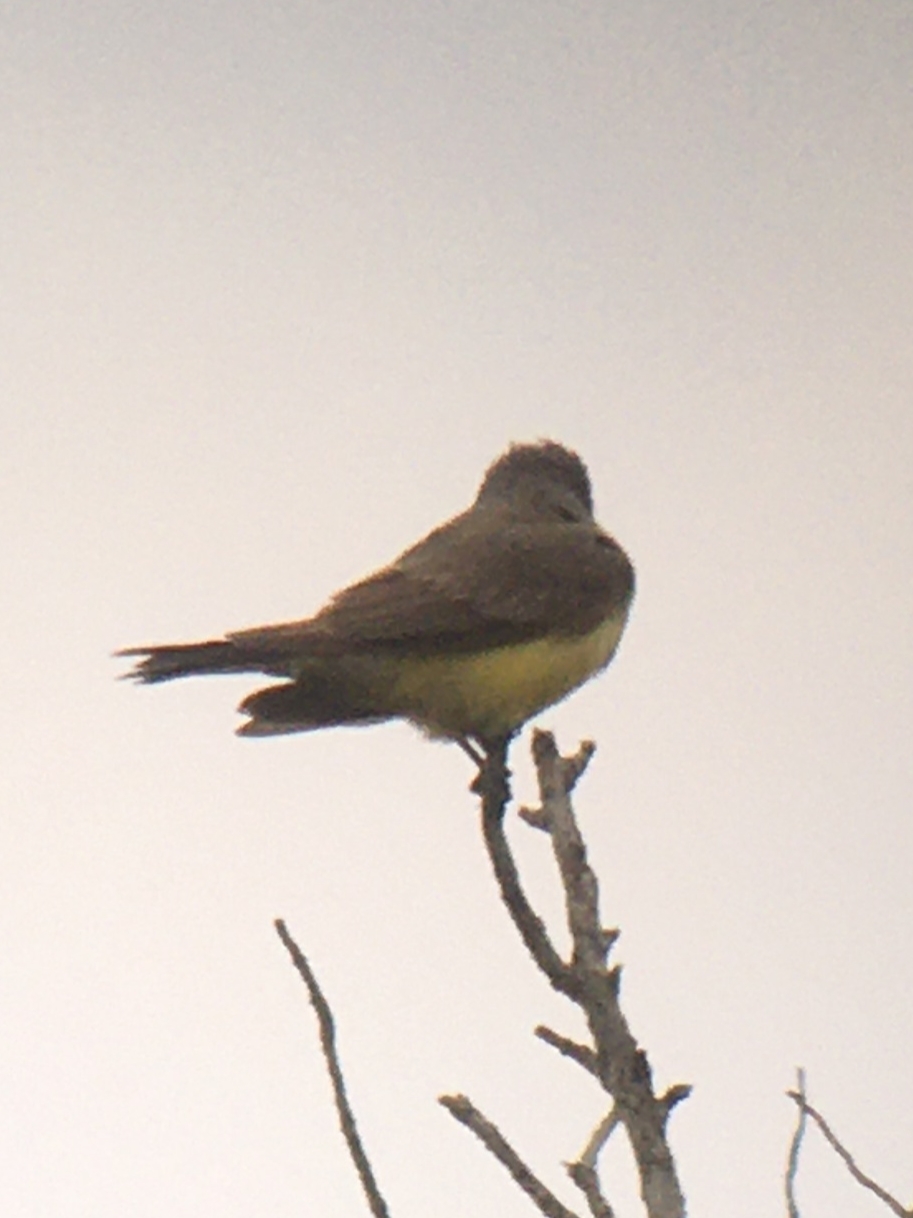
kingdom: Animalia
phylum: Chordata
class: Aves
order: Passeriformes
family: Tyrannidae
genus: Tyrannus
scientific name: Tyrannus verticalis
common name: Western kingbird
